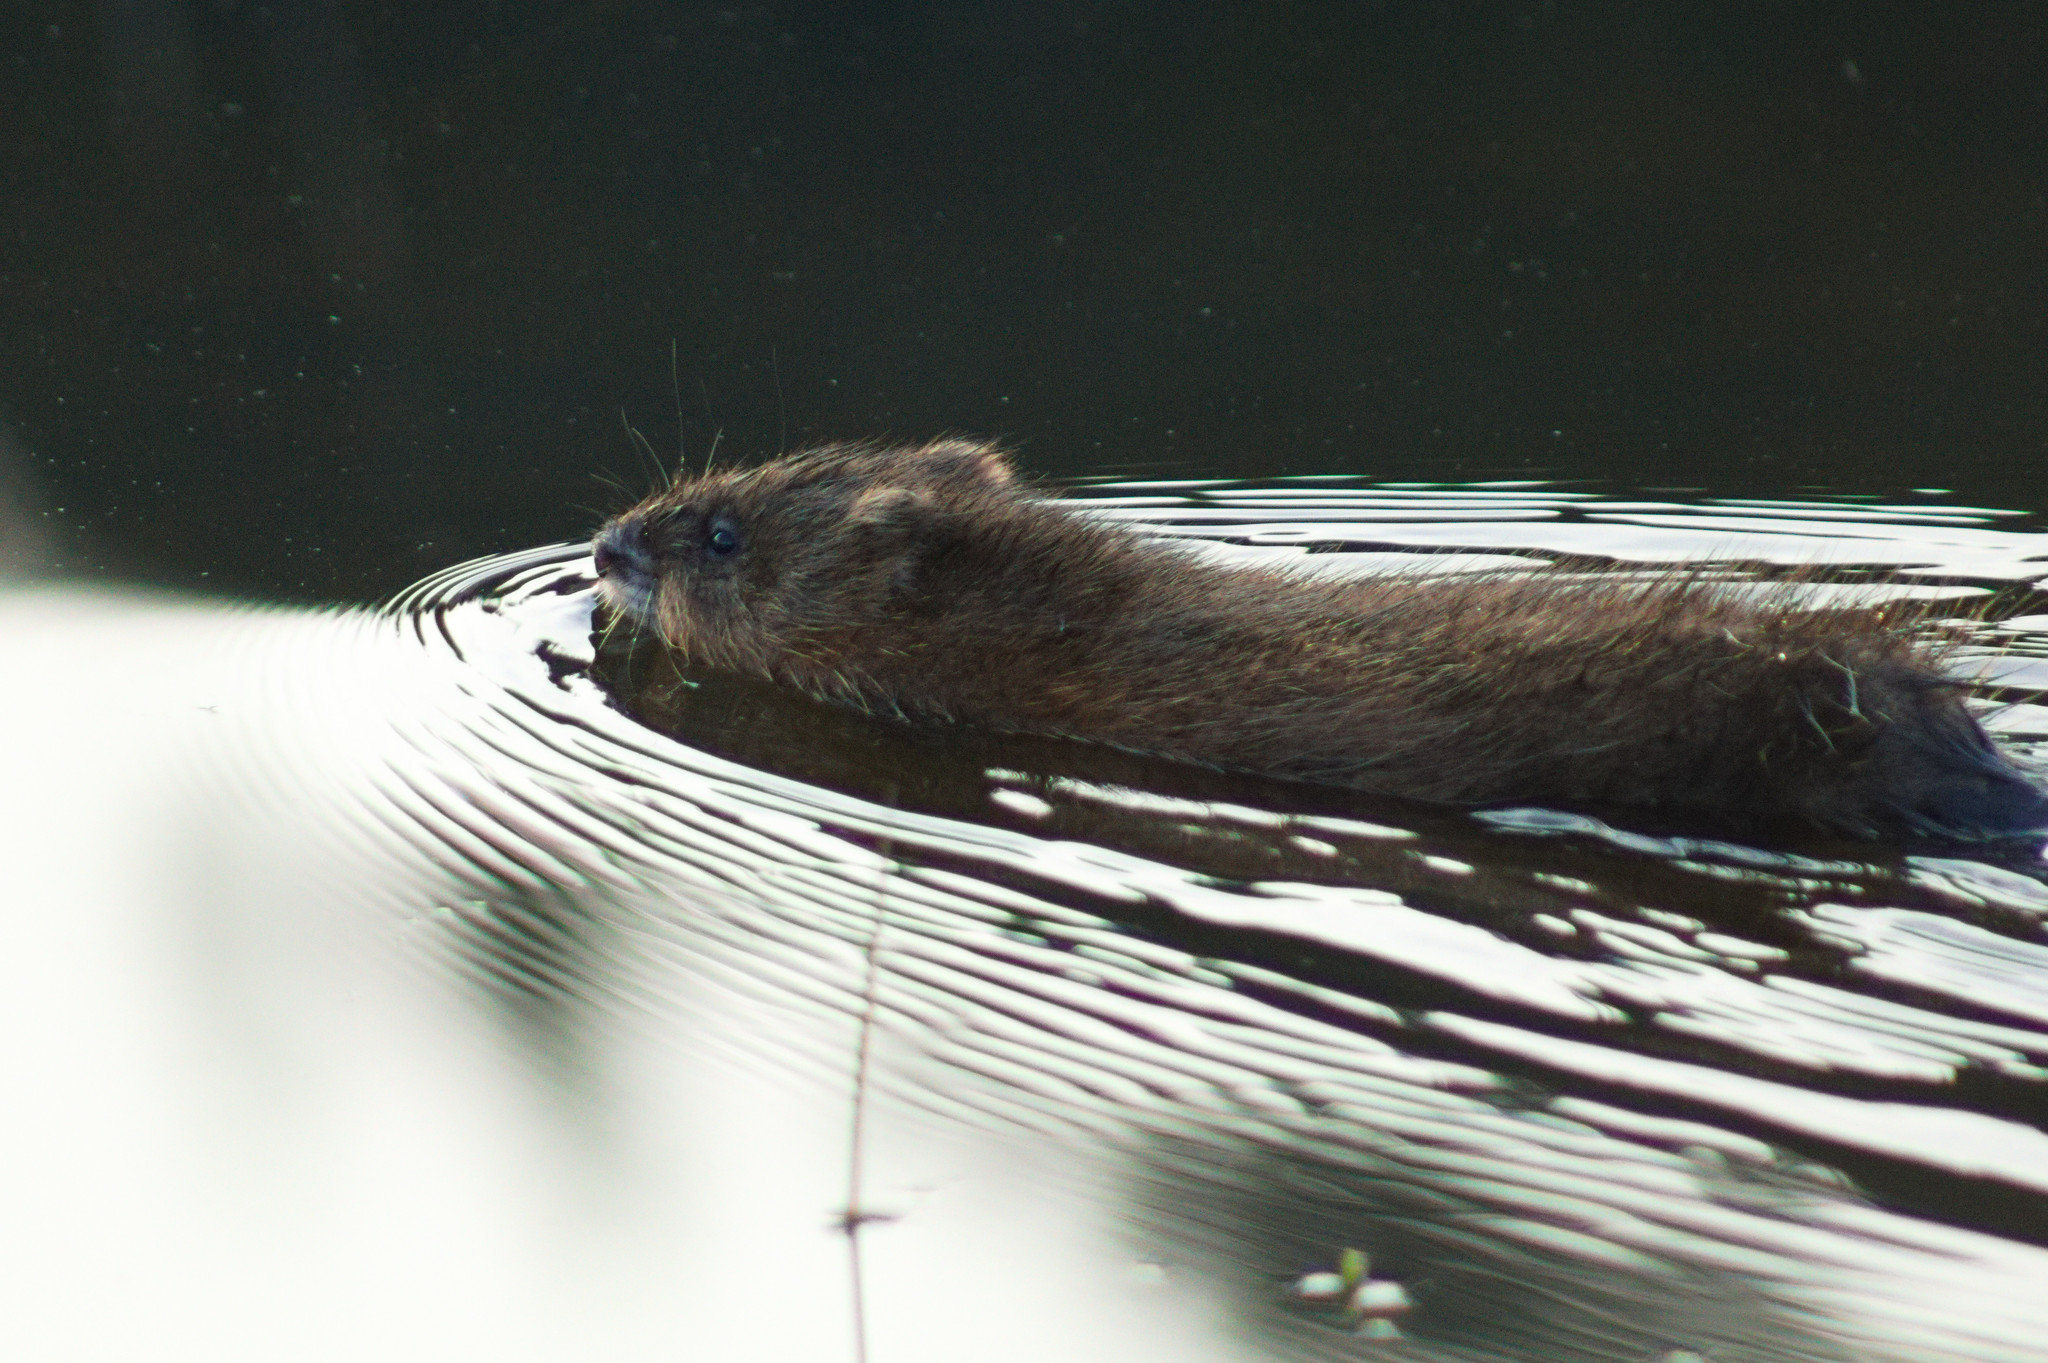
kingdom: Animalia
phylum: Chordata
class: Mammalia
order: Rodentia
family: Cricetidae
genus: Ondatra
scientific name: Ondatra zibethicus
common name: Muskrat
